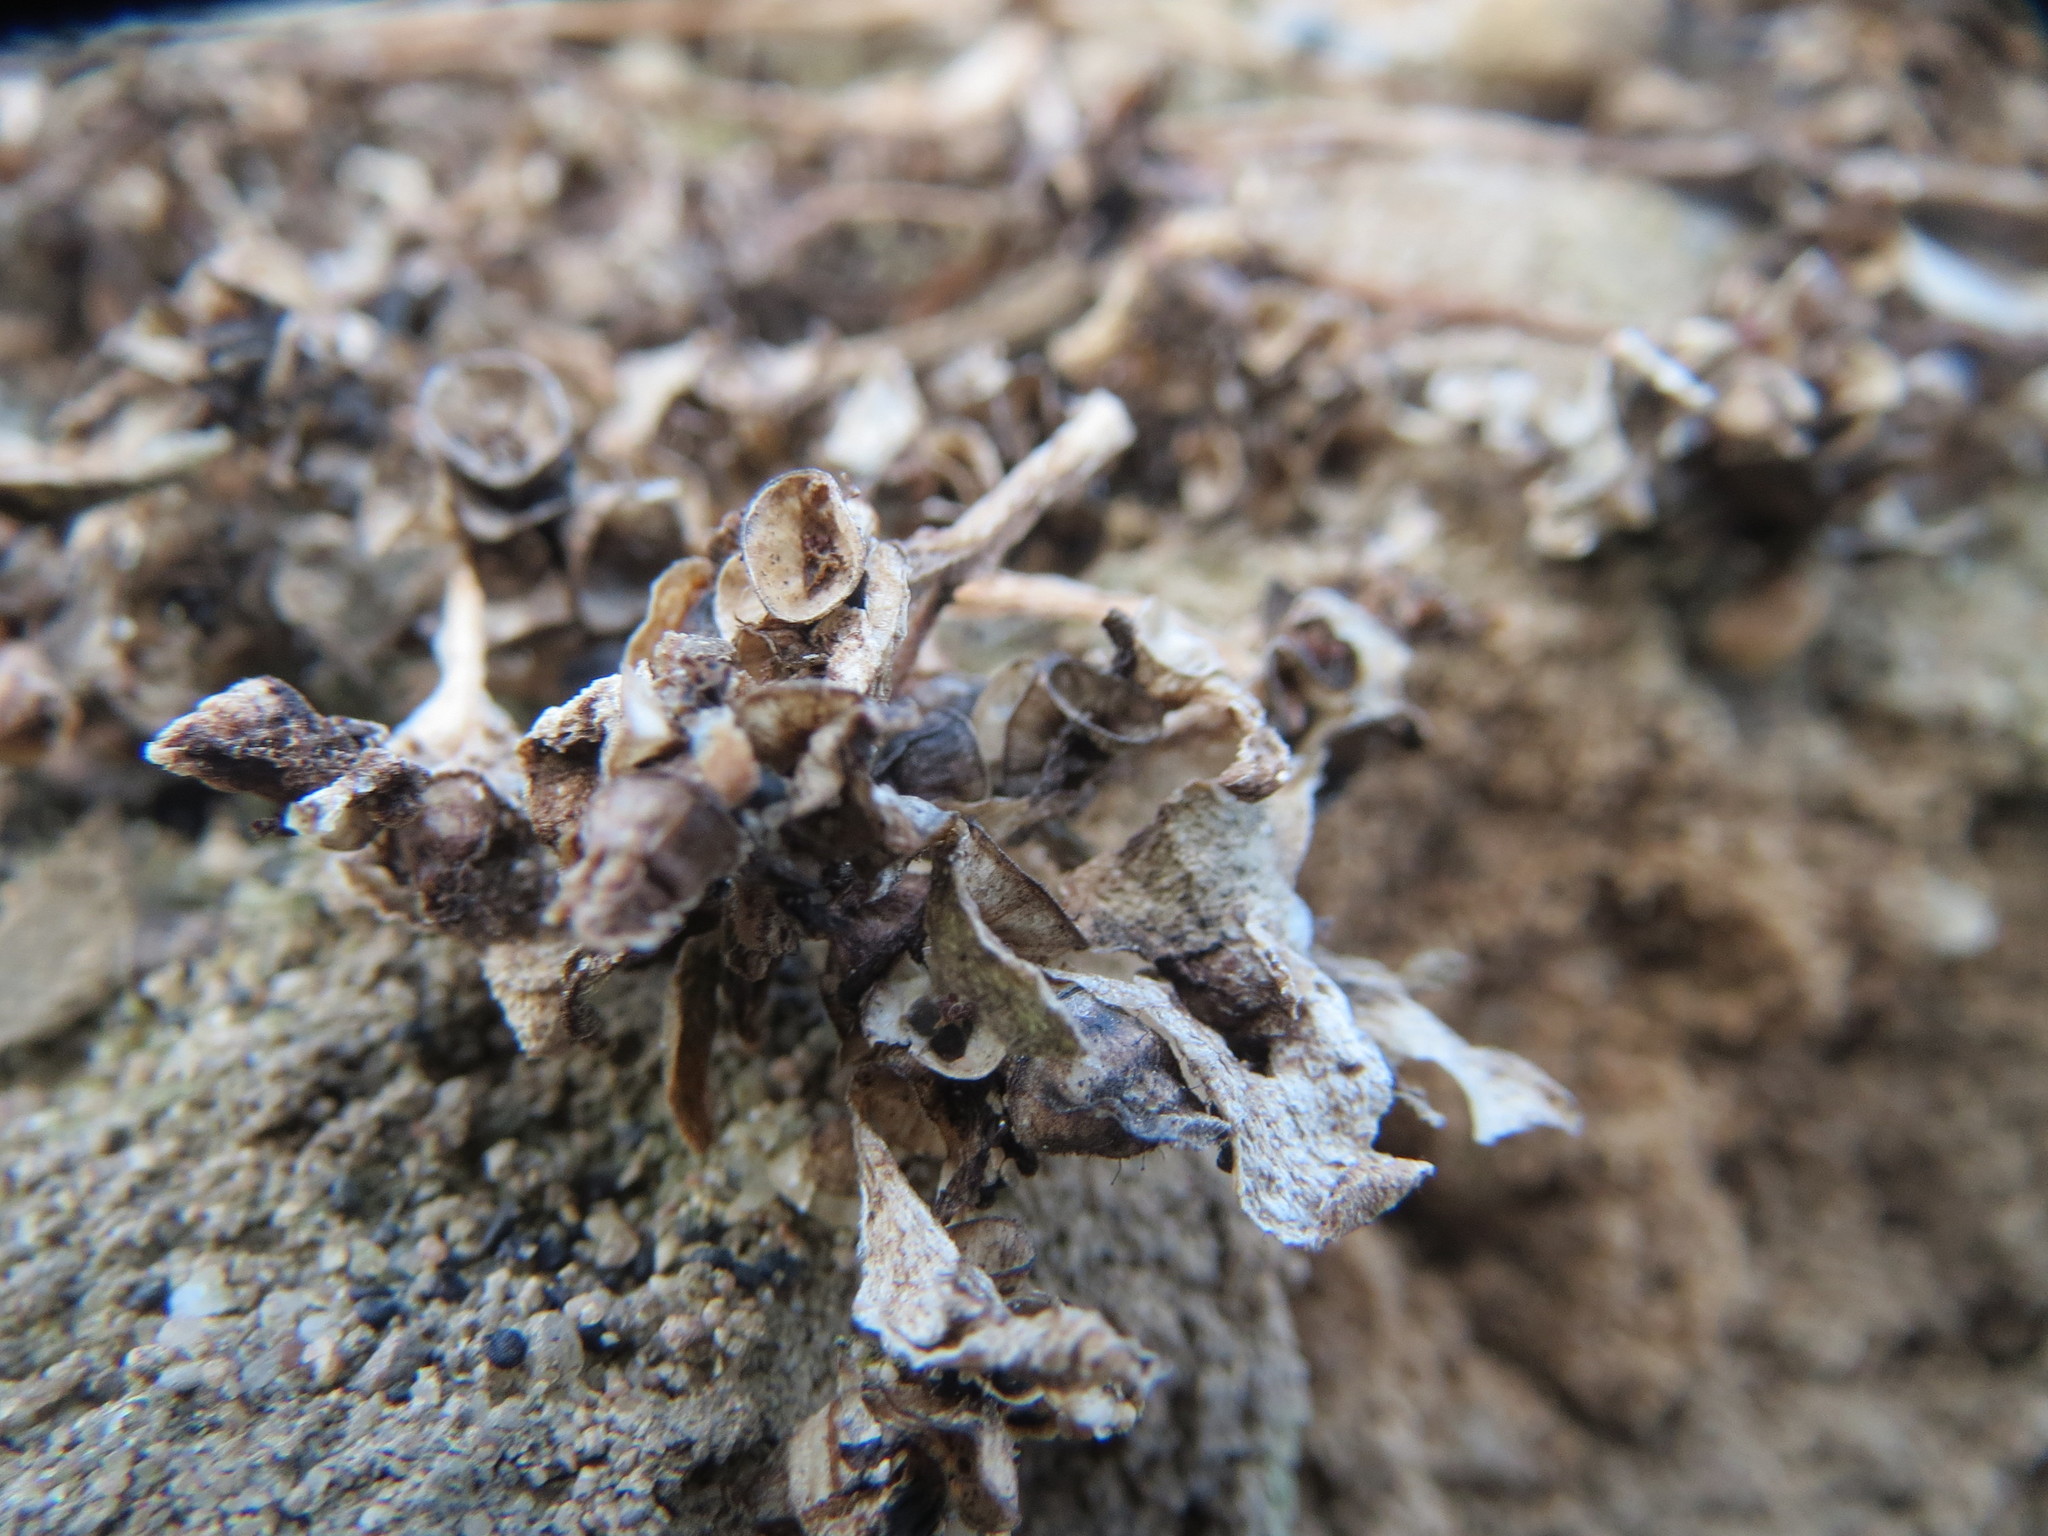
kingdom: Plantae
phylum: Tracheophyta
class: Magnoliopsida
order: Caryophyllales
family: Portulacaceae
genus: Portulaca
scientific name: Portulaca oleracea
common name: Common purslane
